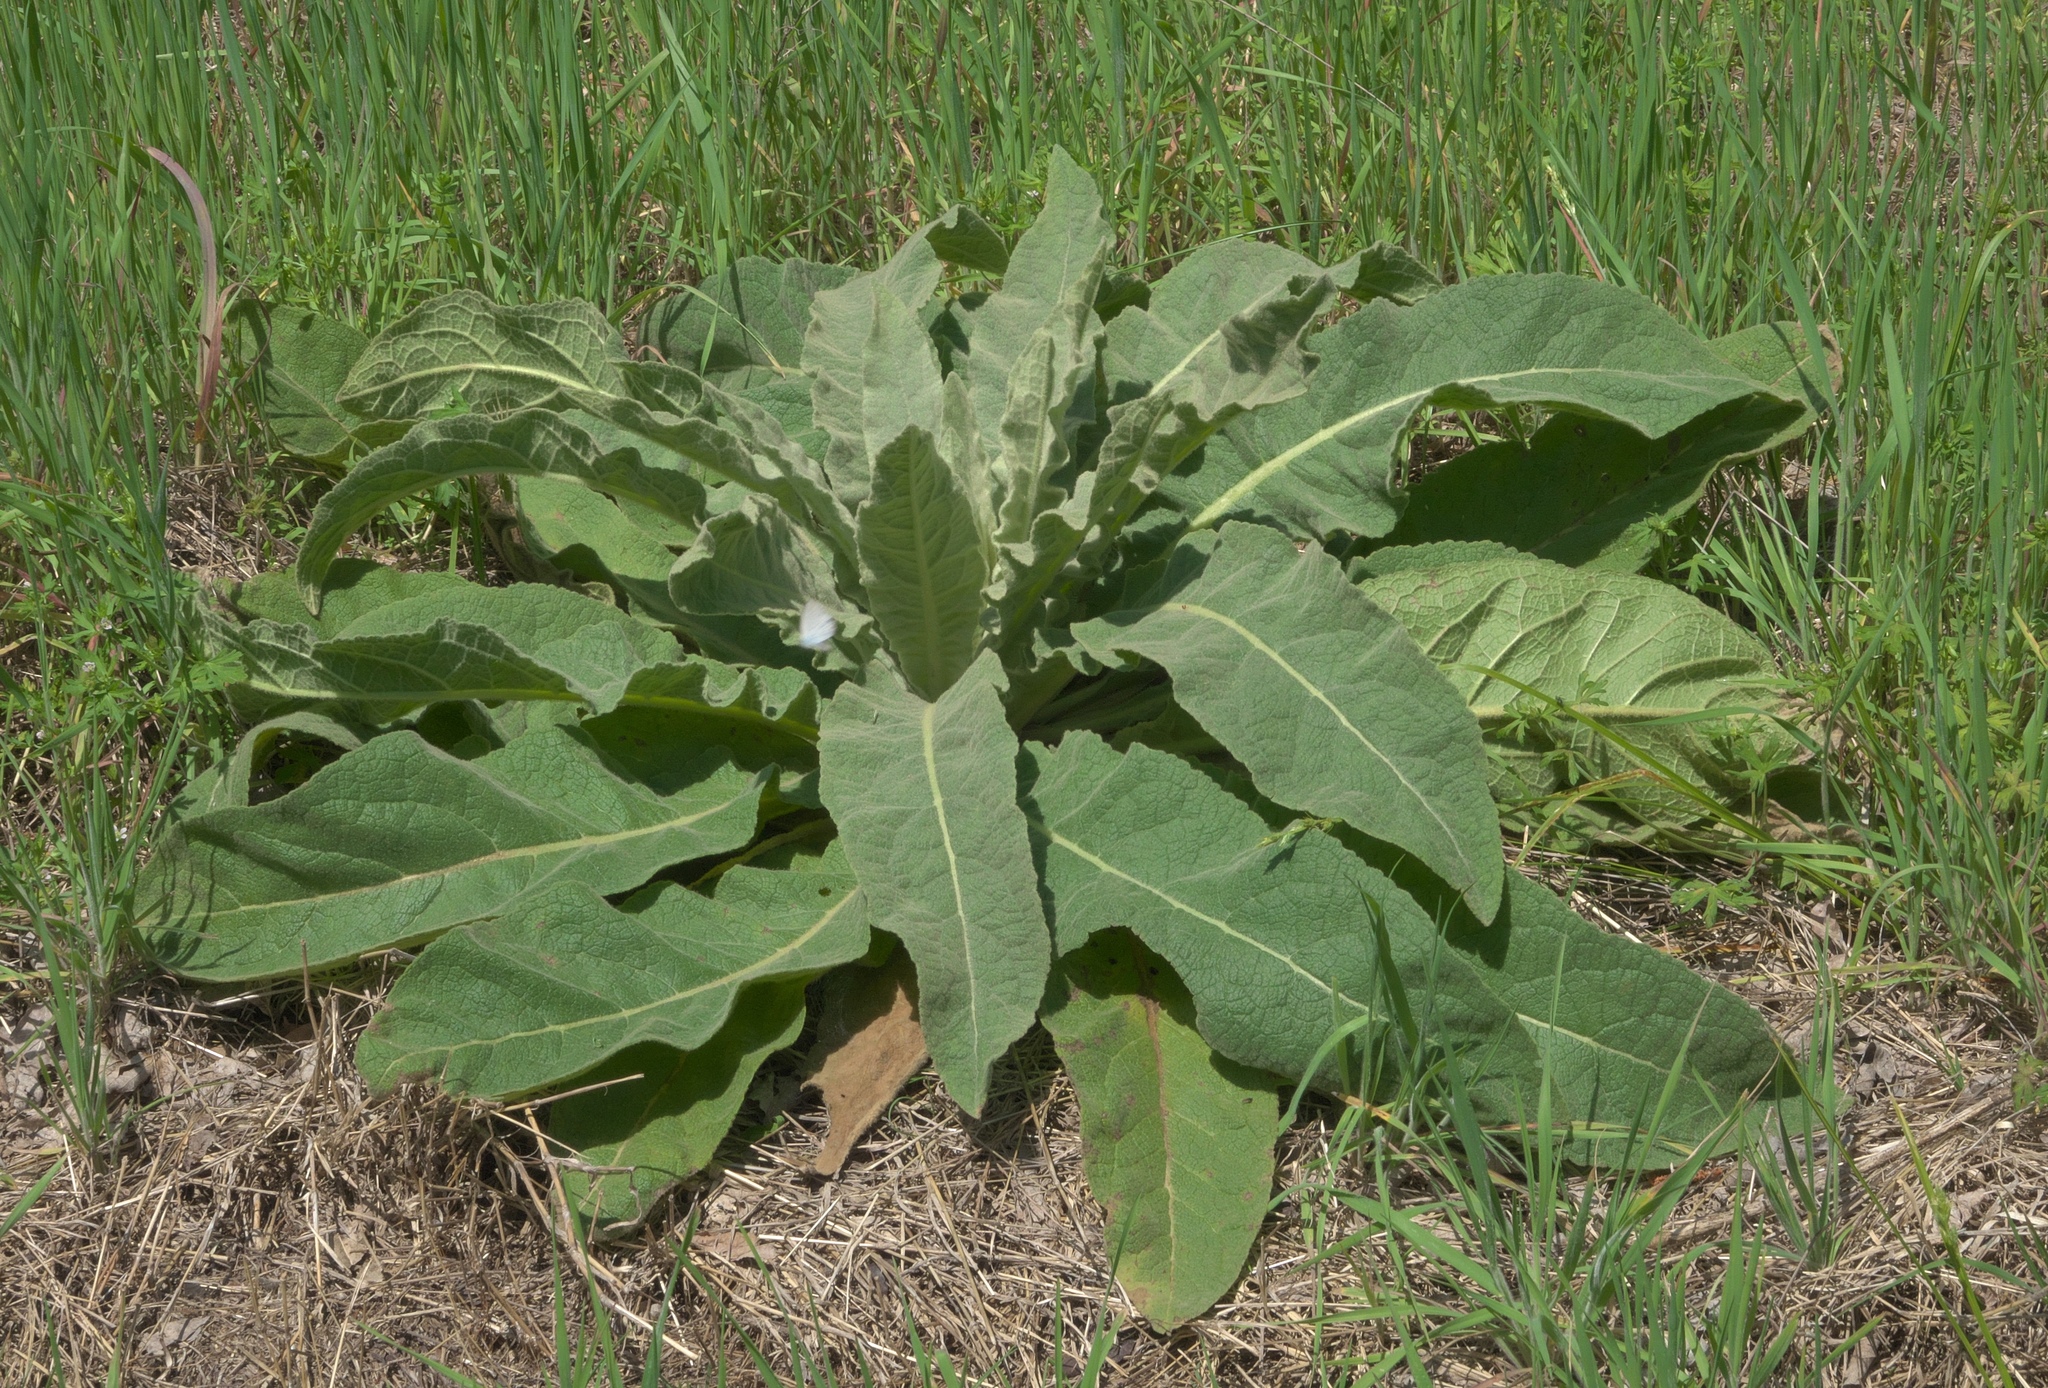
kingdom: Plantae
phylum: Tracheophyta
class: Magnoliopsida
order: Lamiales
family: Scrophulariaceae
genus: Verbascum
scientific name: Verbascum thapsus
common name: Common mullein
